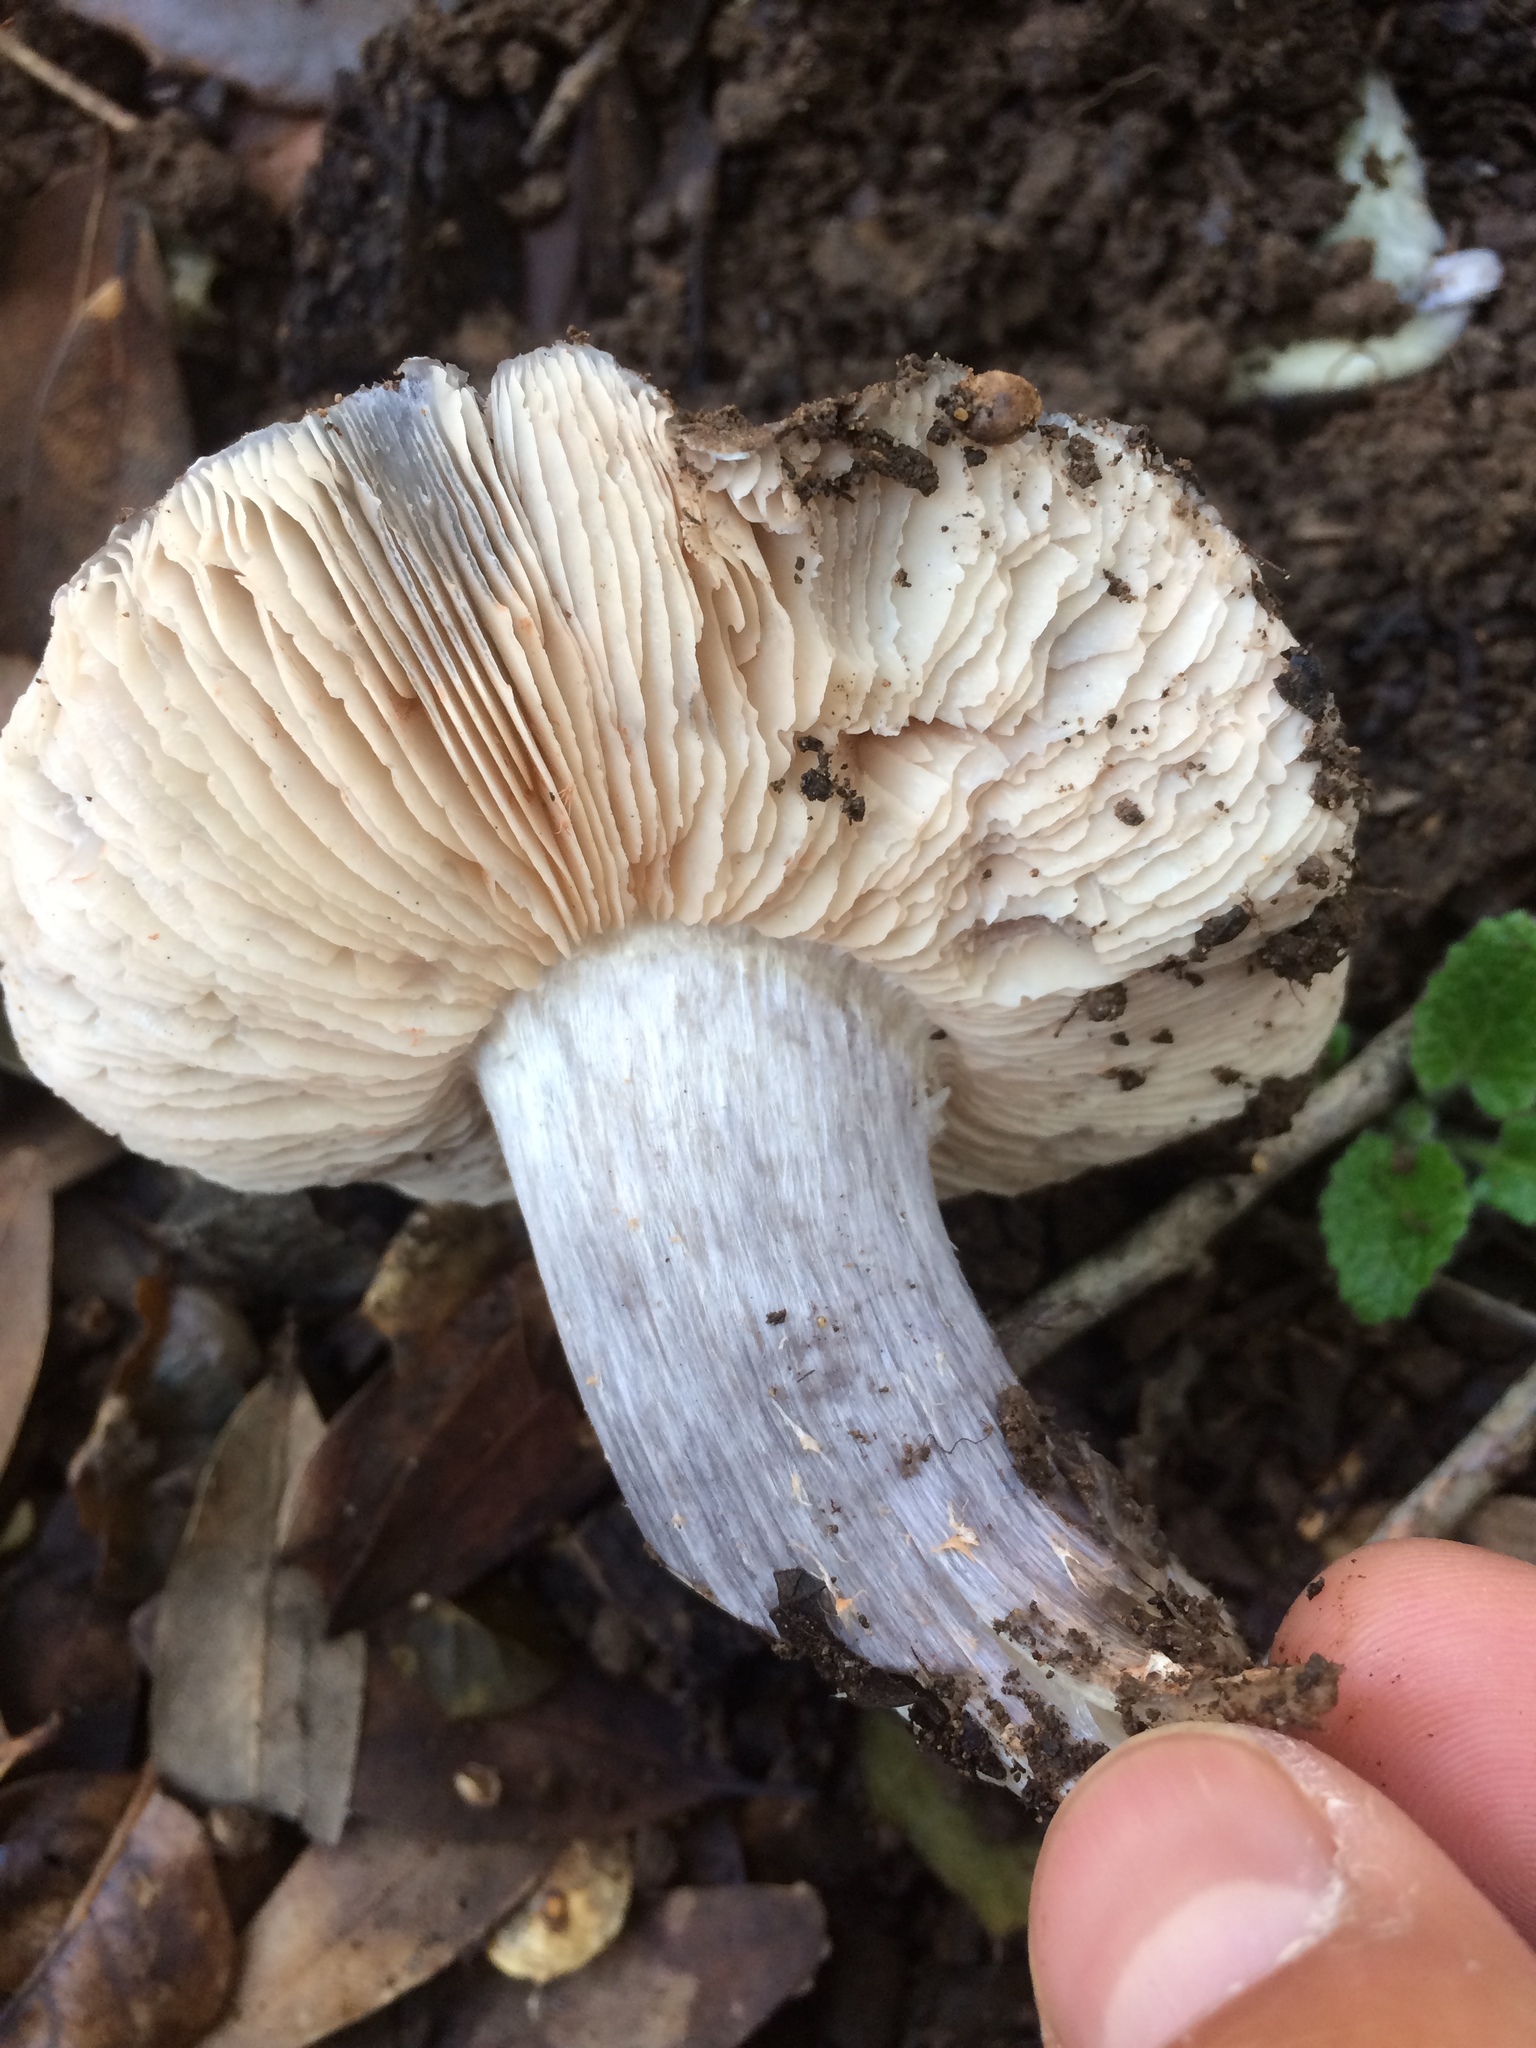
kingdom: Fungi
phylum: Basidiomycota
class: Agaricomycetes
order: Agaricales
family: Entolomataceae
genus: Entoloma
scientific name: Entoloma medianox
